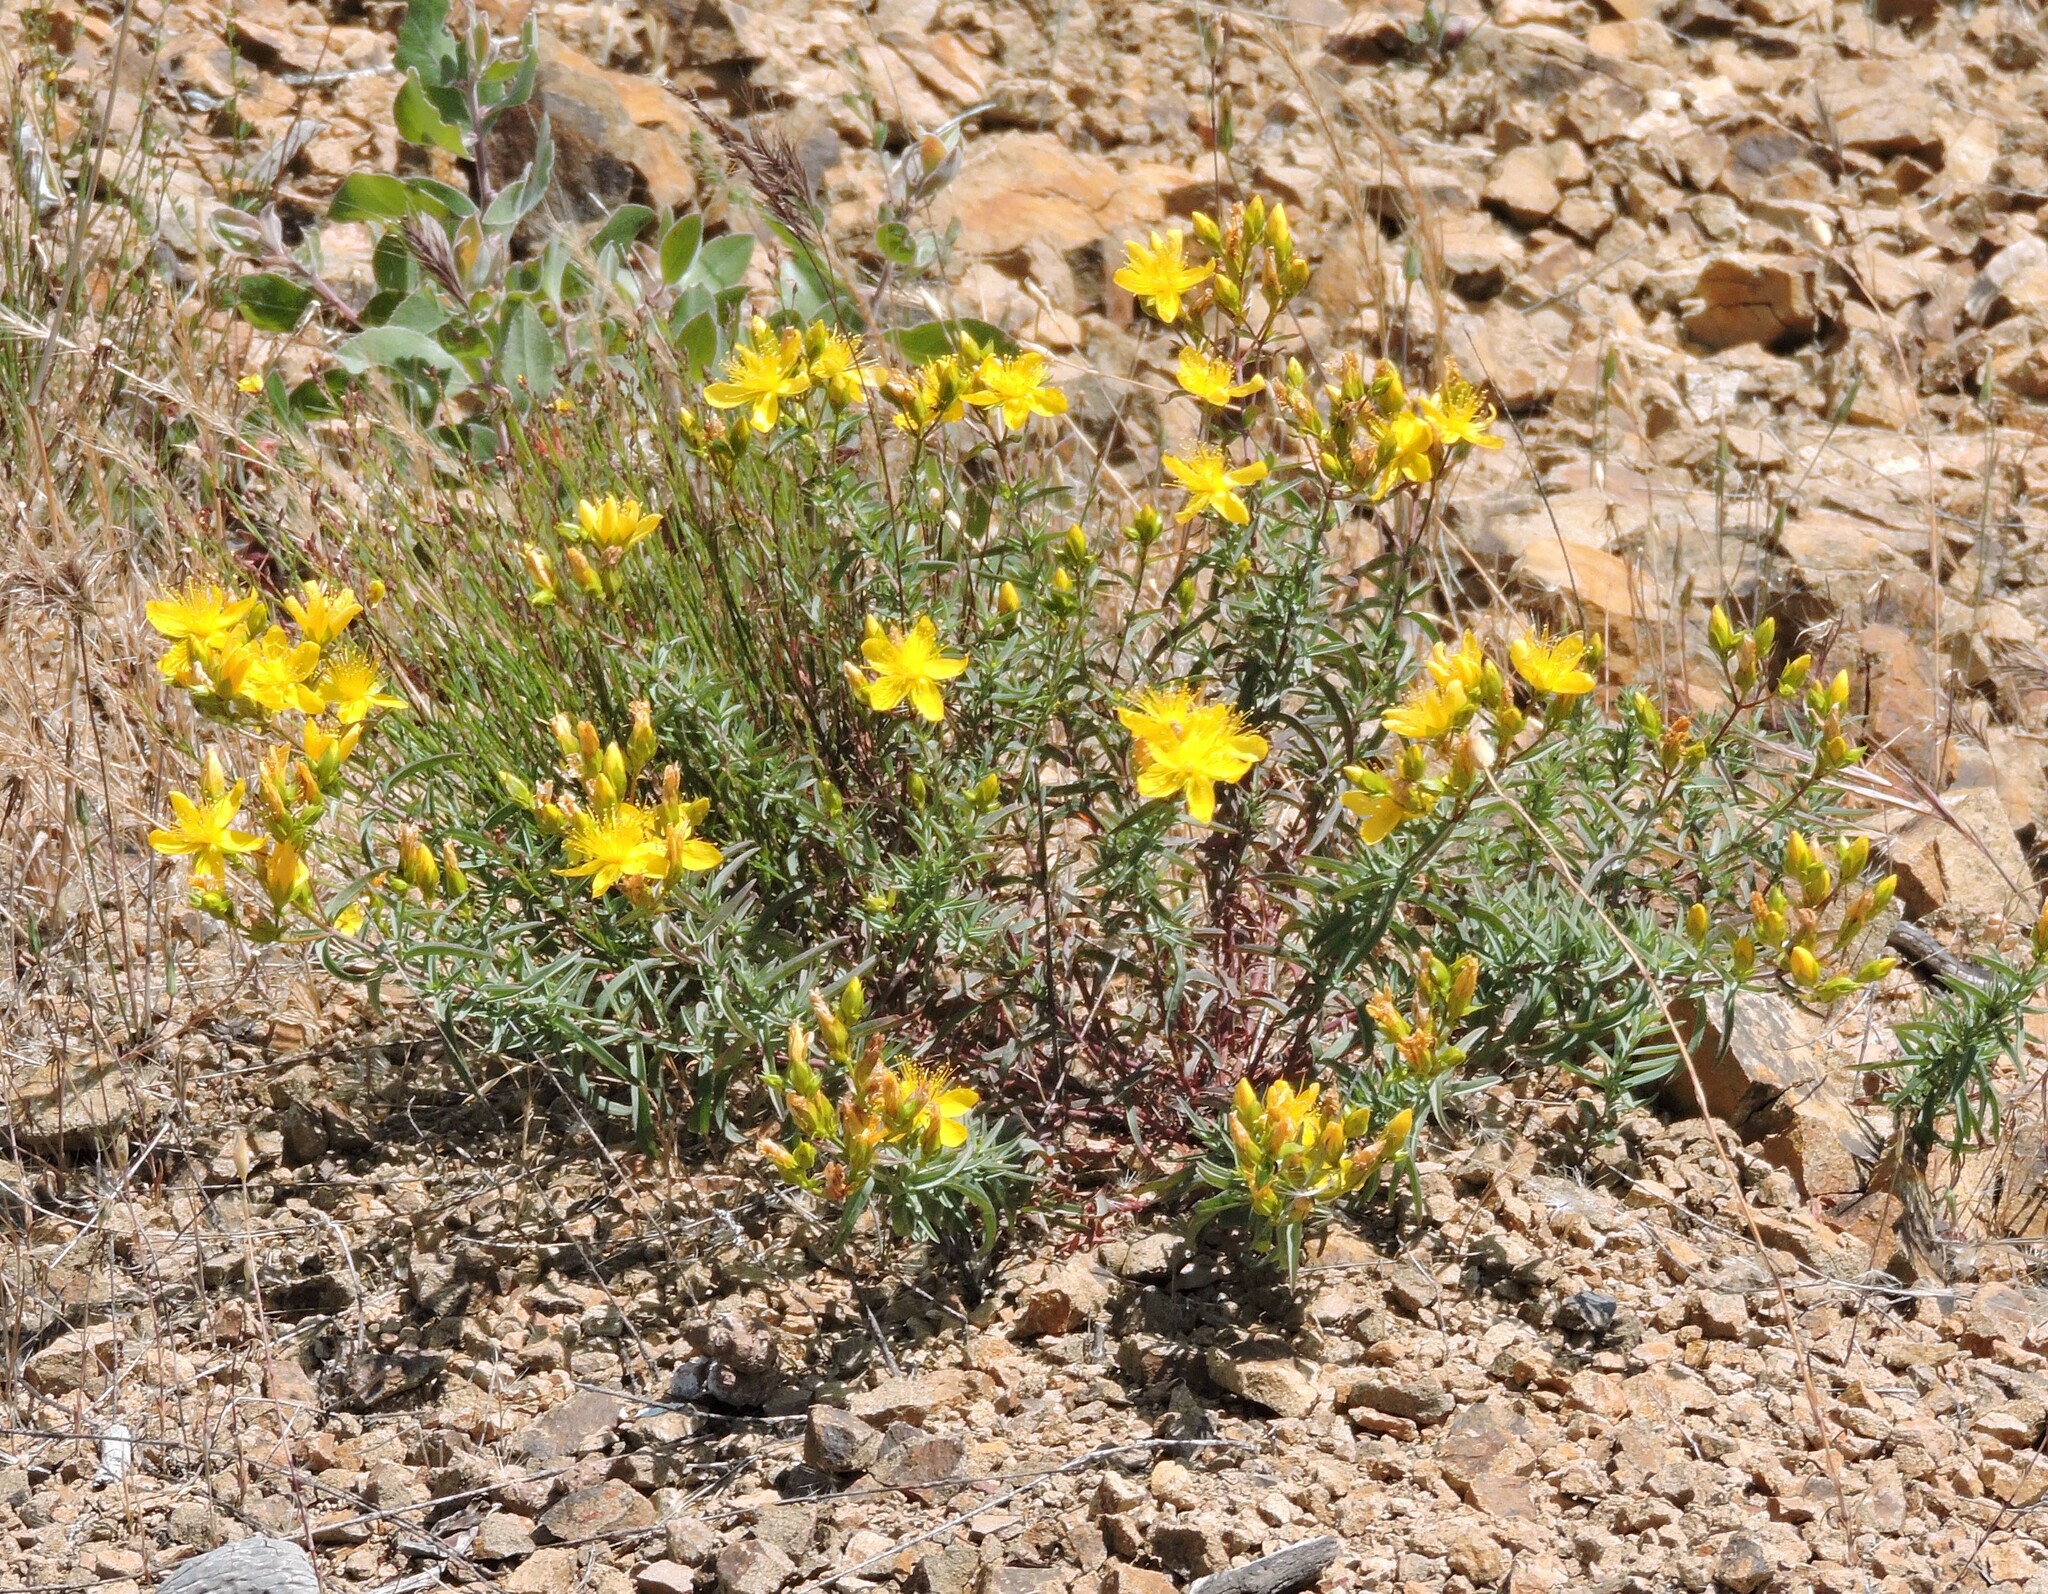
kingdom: Plantae
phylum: Tracheophyta
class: Magnoliopsida
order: Malpighiales
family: Hypericaceae
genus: Hypericum
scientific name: Hypericum concinnum
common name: Gold-wire
